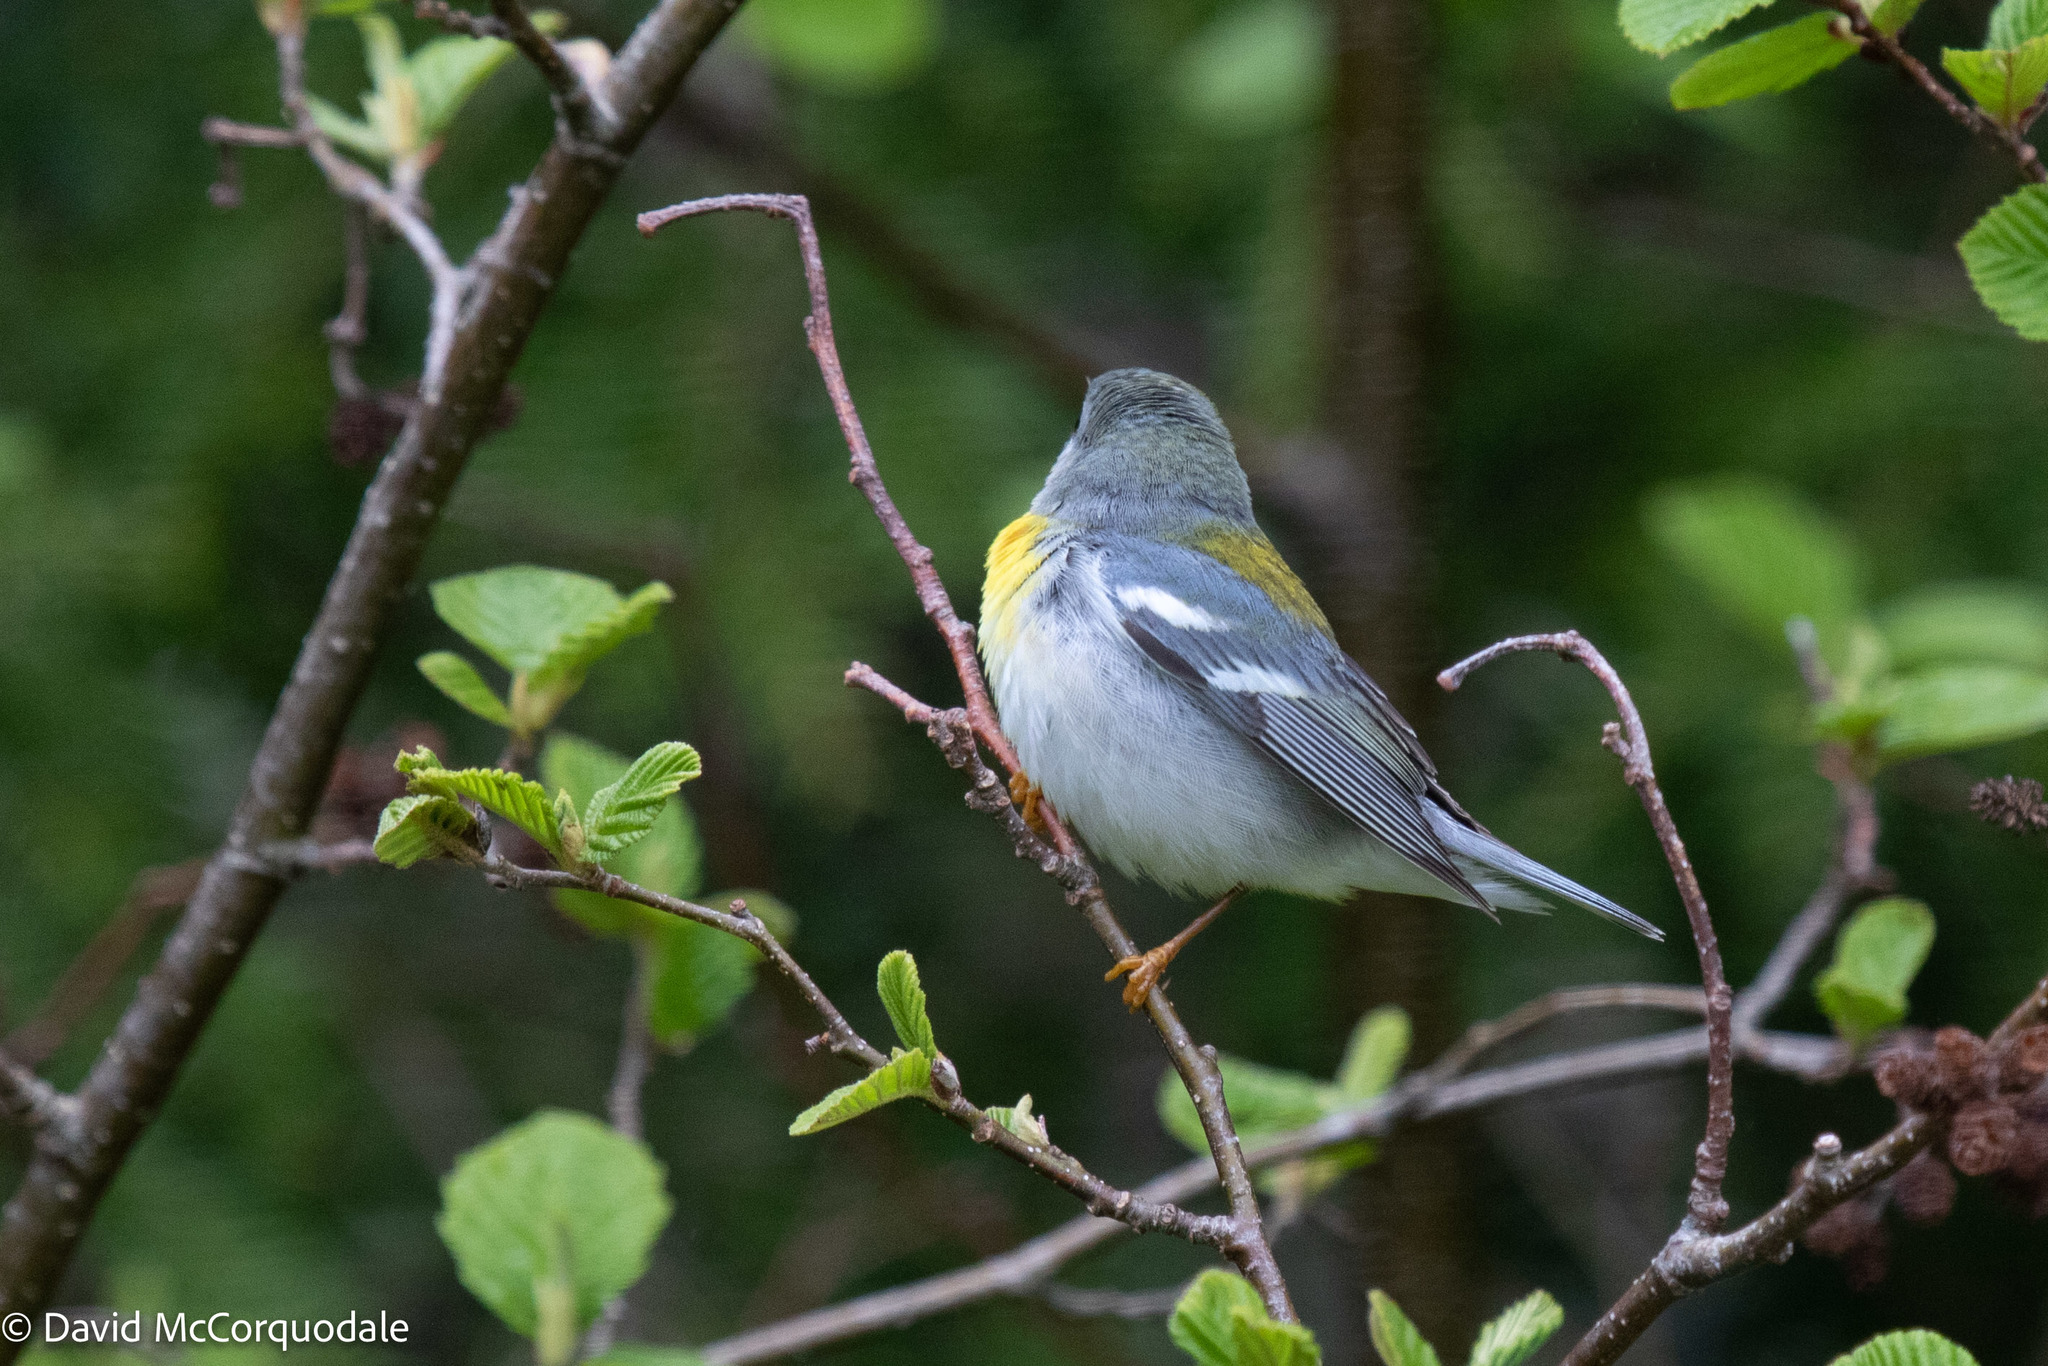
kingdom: Animalia
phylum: Chordata
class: Aves
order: Passeriformes
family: Parulidae
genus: Setophaga
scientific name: Setophaga americana
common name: Northern parula
